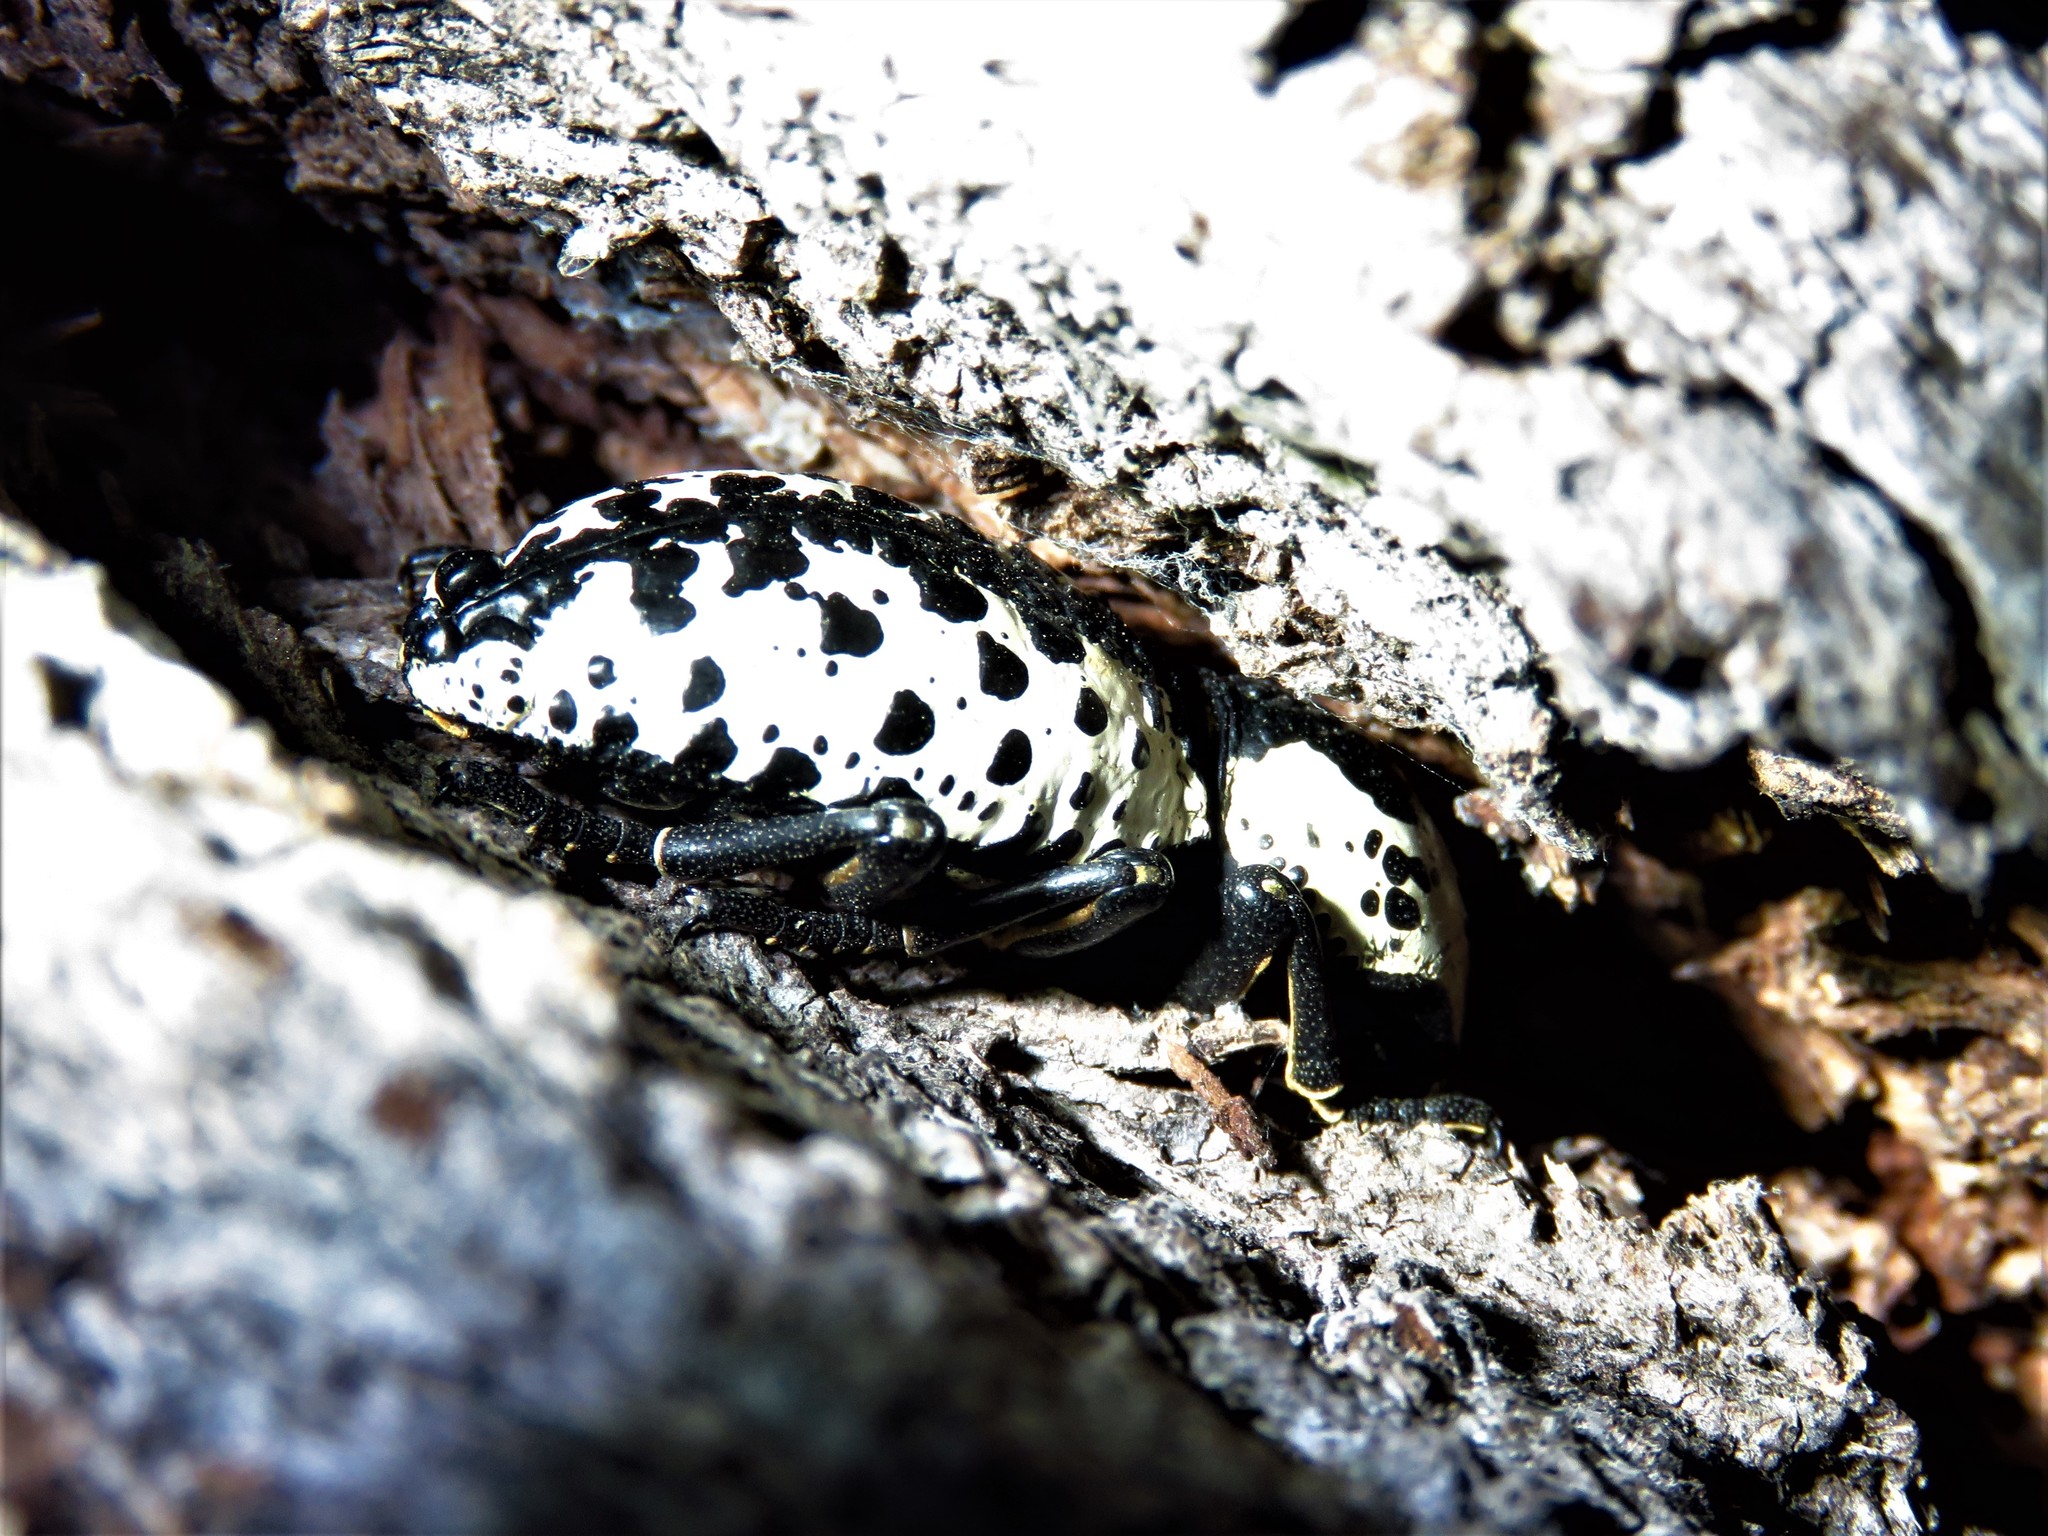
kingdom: Animalia
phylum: Arthropoda
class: Insecta
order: Coleoptera
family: Zopheridae
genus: Zopherus
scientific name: Zopherus nodulosus
